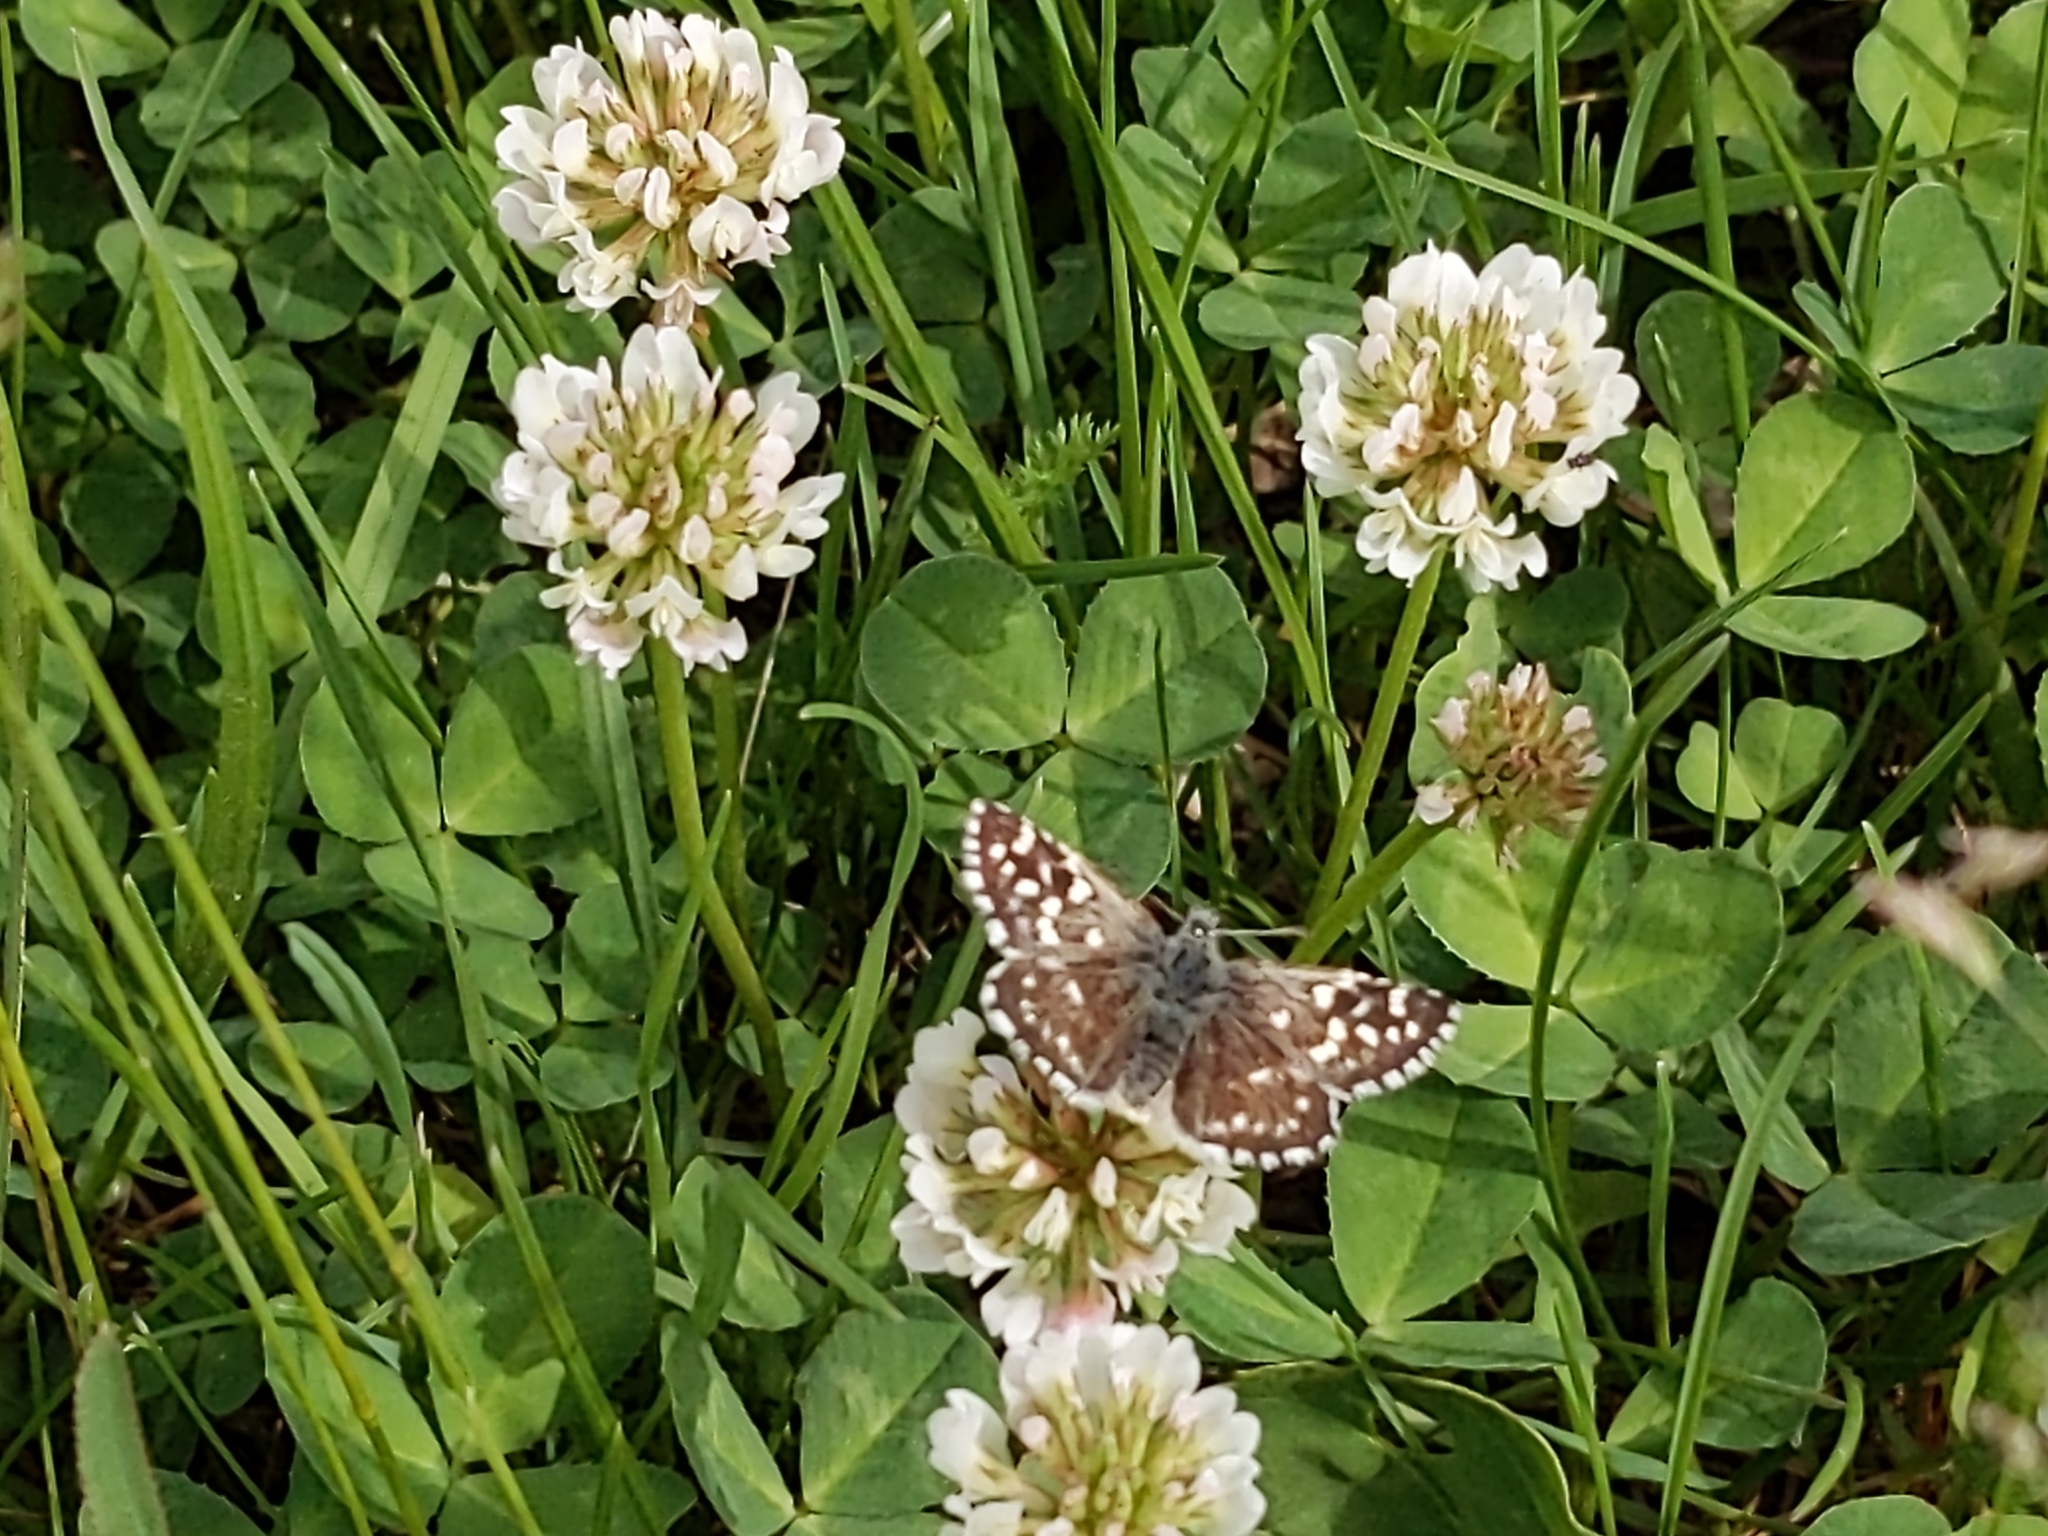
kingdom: Animalia
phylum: Arthropoda
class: Insecta
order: Lepidoptera
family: Hesperiidae
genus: Pyrgus
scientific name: Pyrgus malvae
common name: Grizzled skipper
